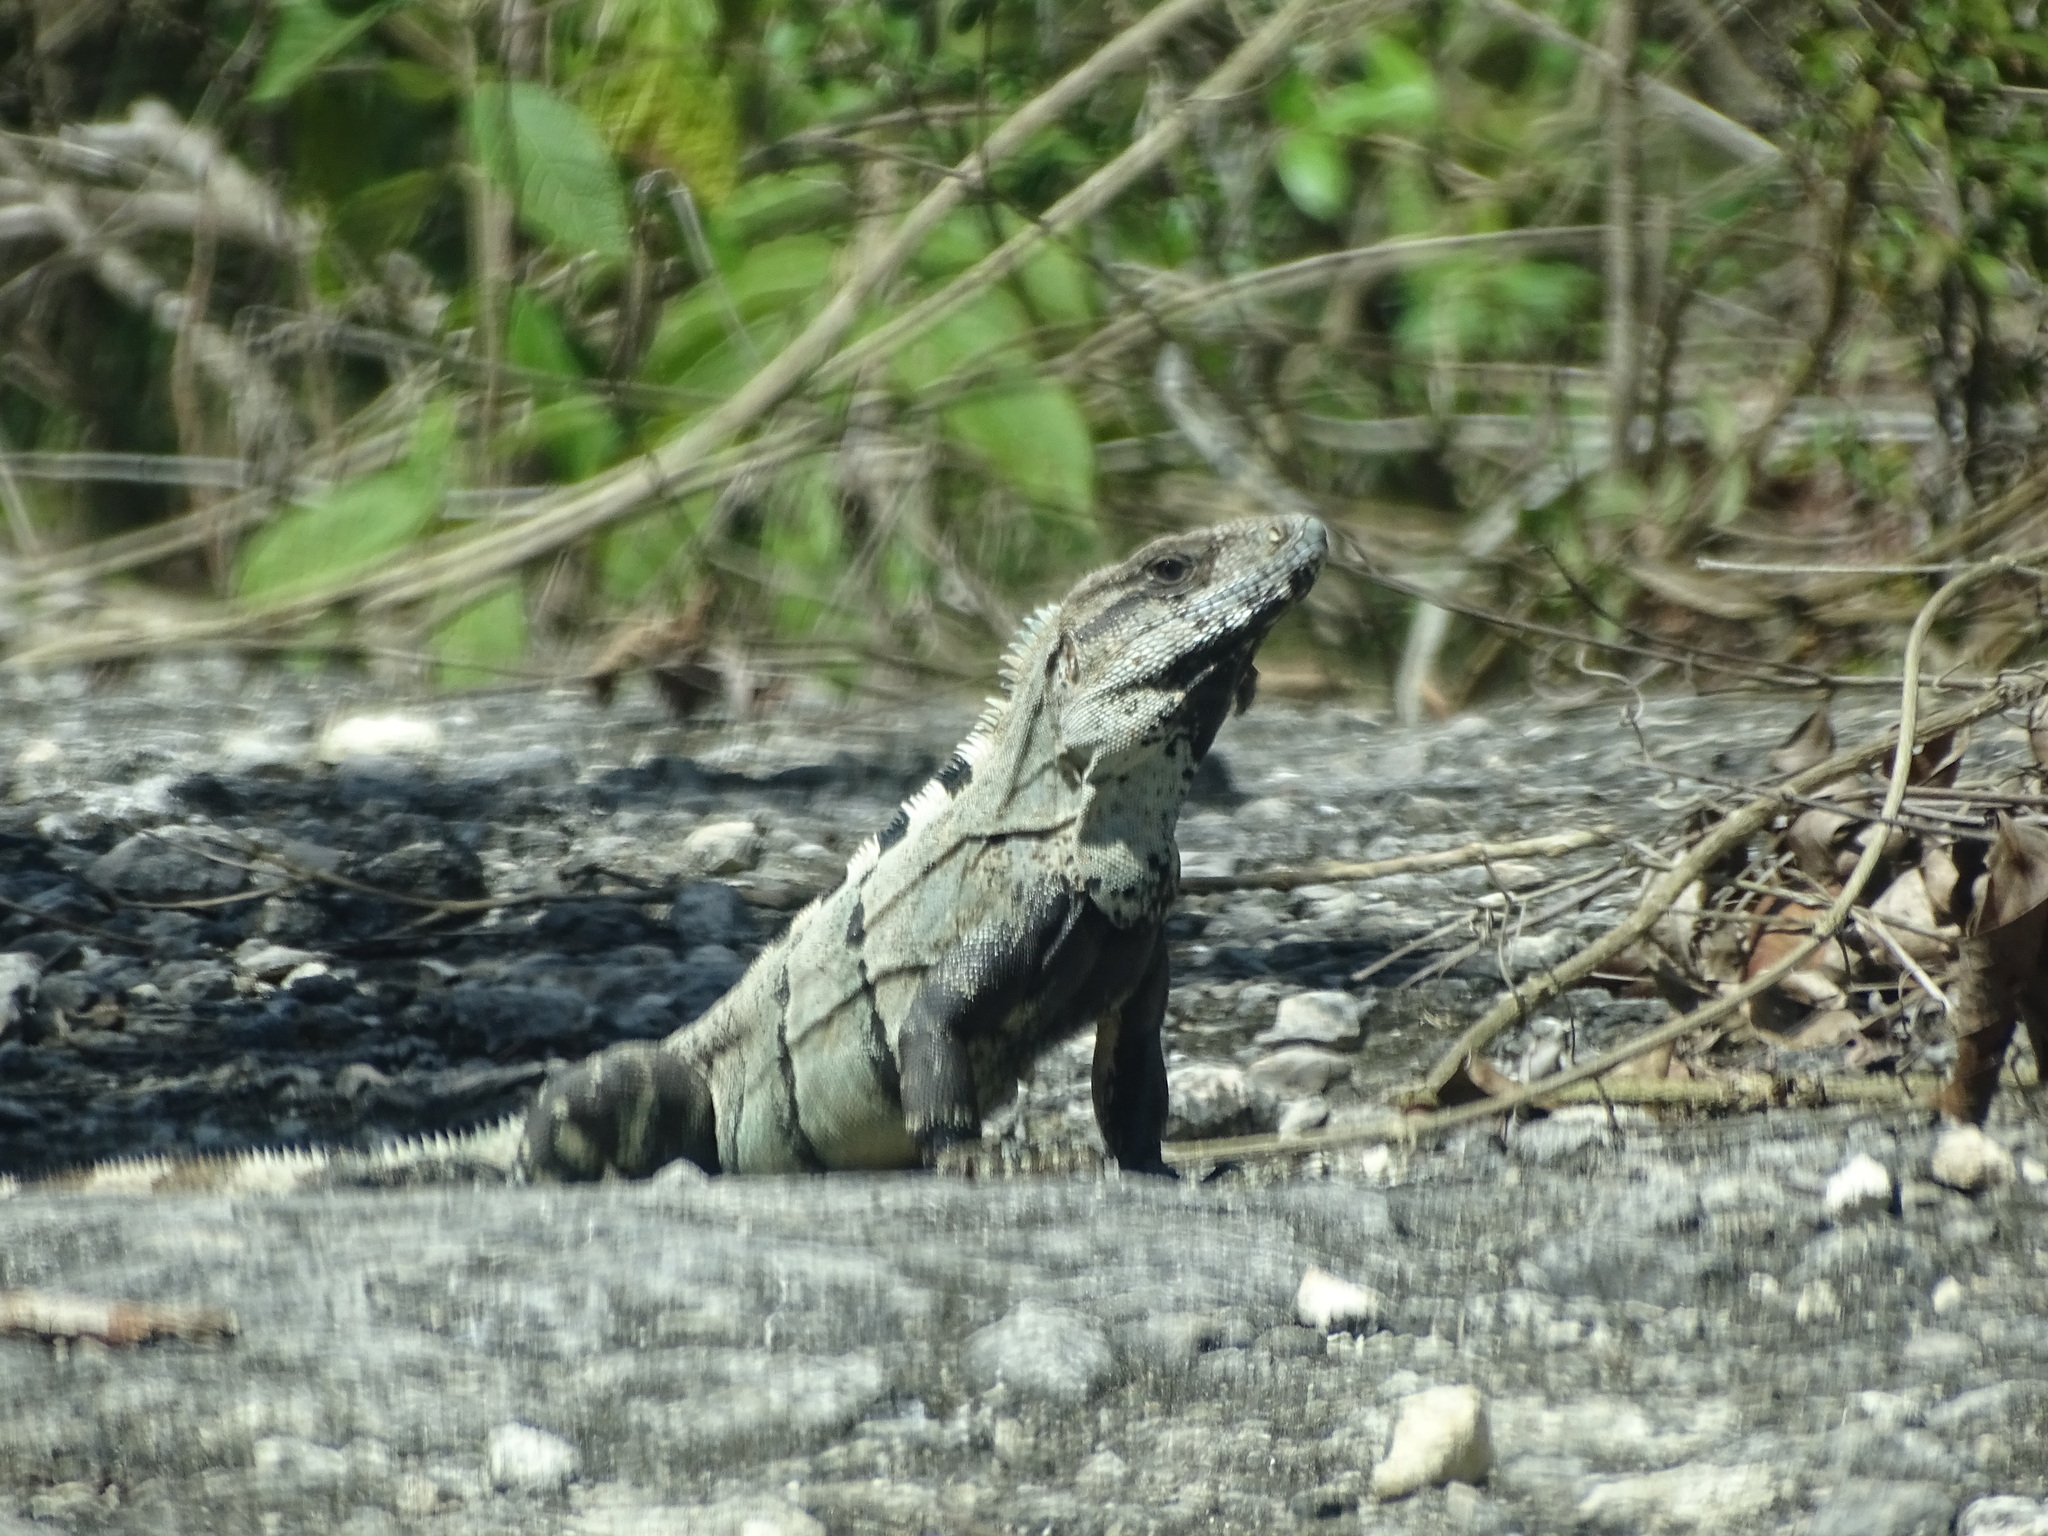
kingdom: Animalia
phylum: Chordata
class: Squamata
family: Iguanidae
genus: Ctenosaura
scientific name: Ctenosaura similis
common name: Black spiny-tailed iguana
